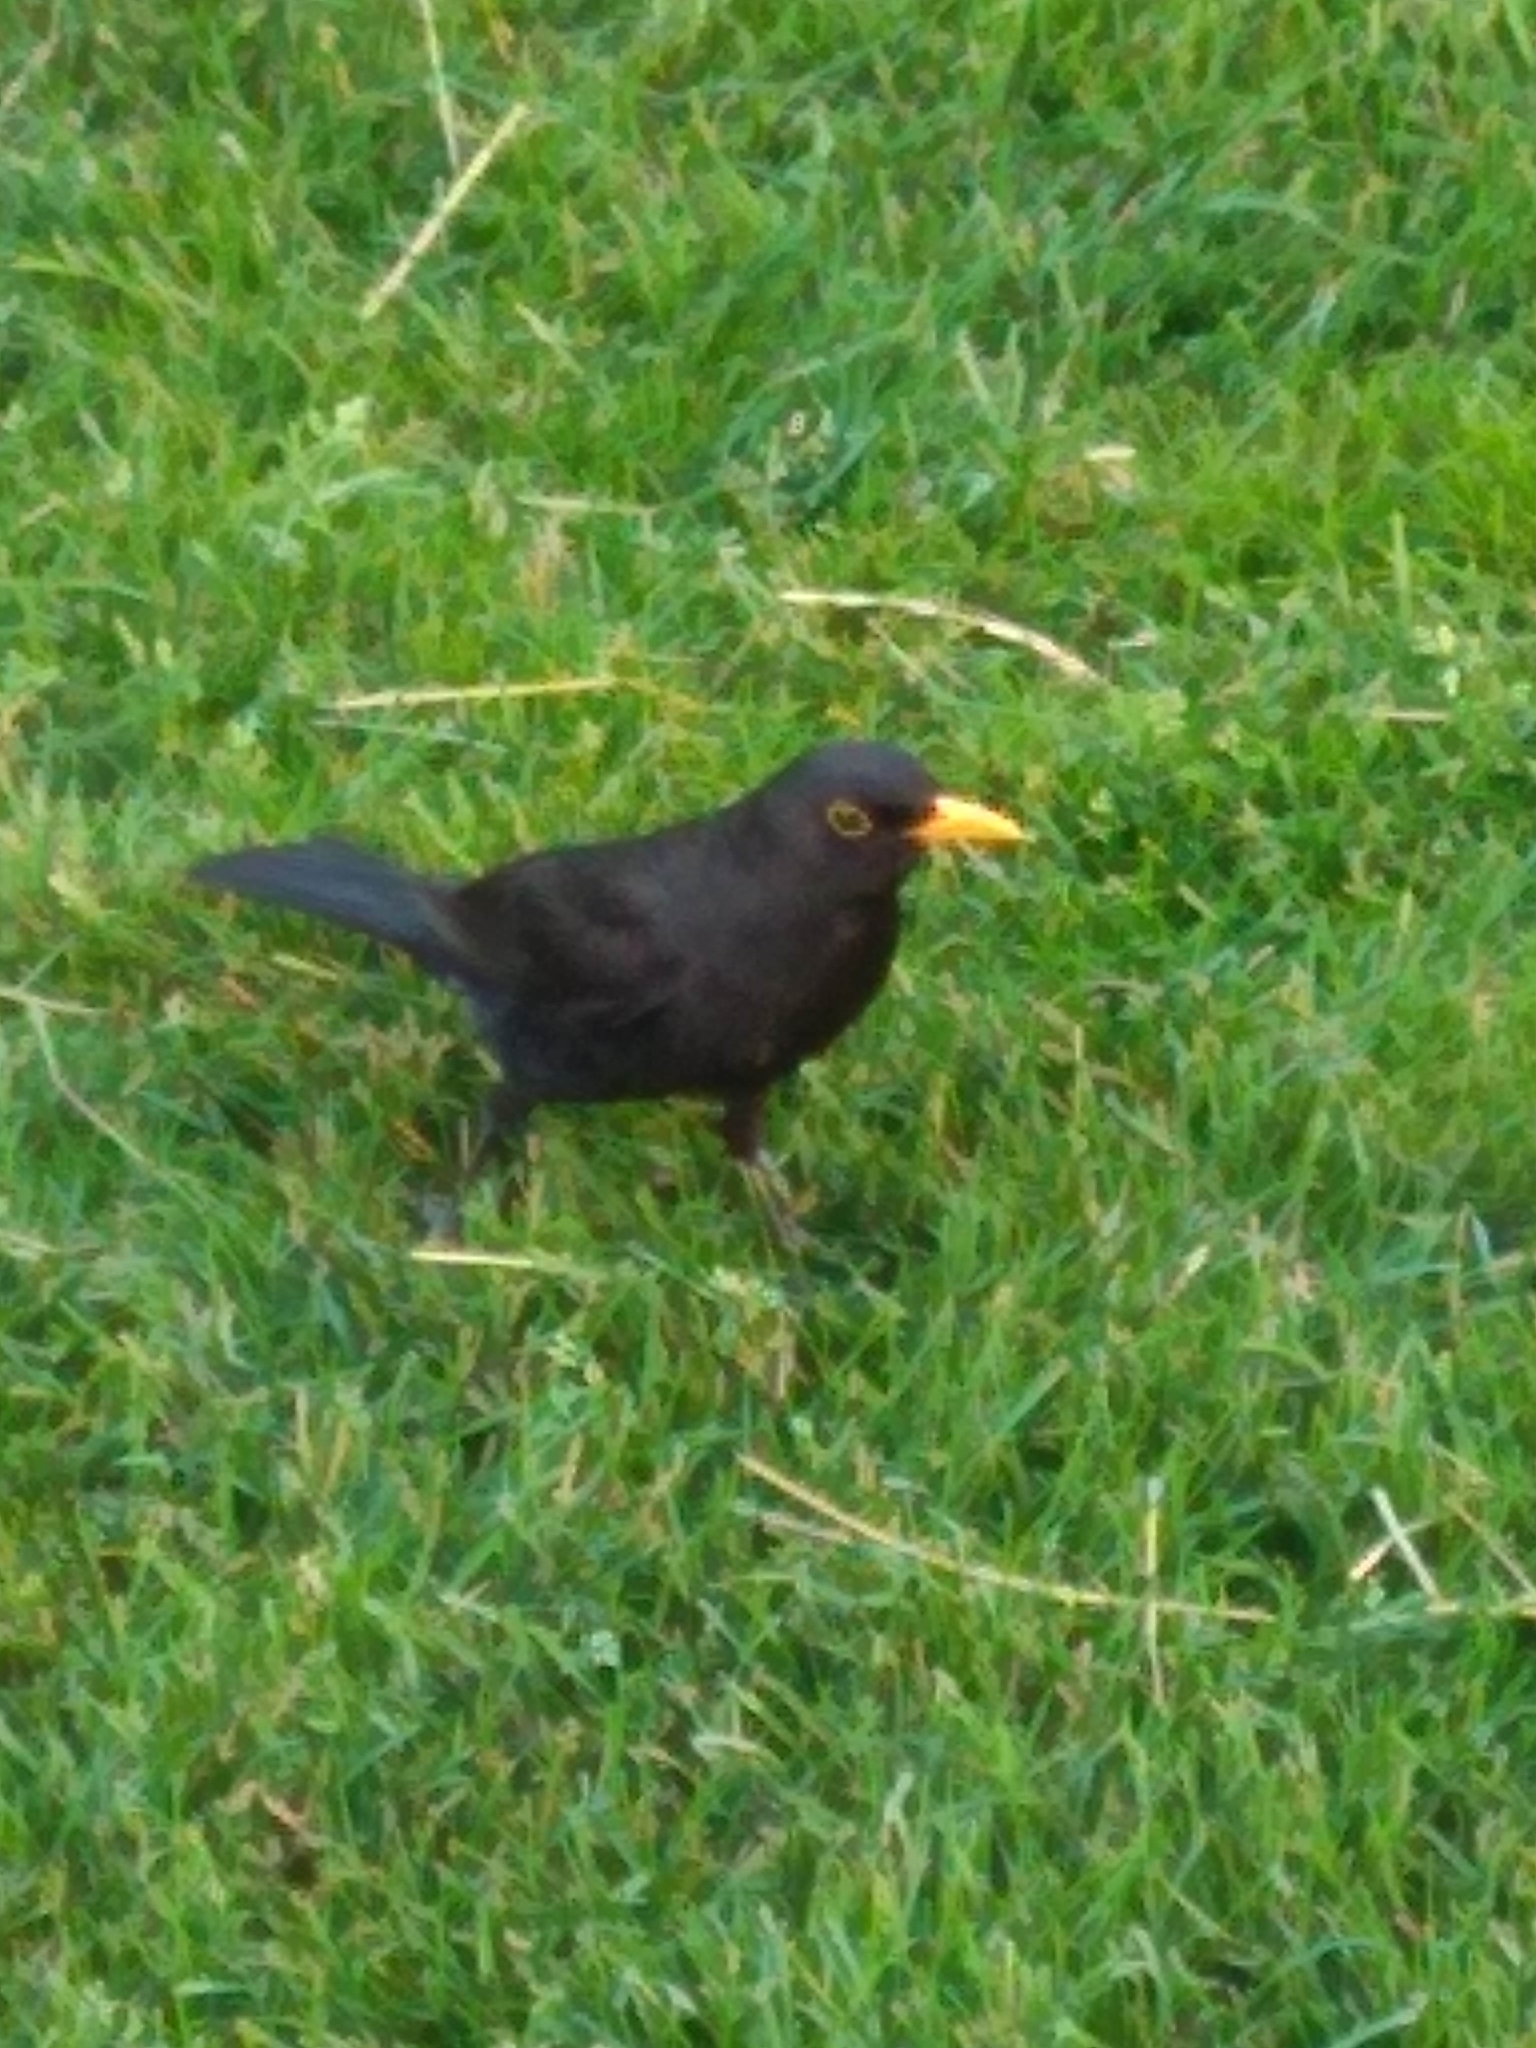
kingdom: Animalia
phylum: Chordata
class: Aves
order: Passeriformes
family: Turdidae
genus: Turdus
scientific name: Turdus merula
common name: Common blackbird
